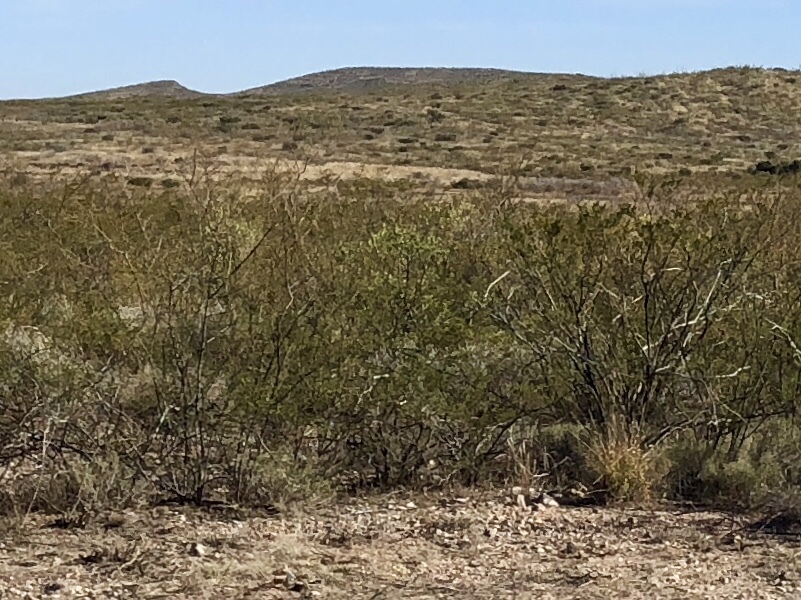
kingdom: Plantae
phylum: Tracheophyta
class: Magnoliopsida
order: Zygophyllales
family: Zygophyllaceae
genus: Larrea
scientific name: Larrea tridentata
